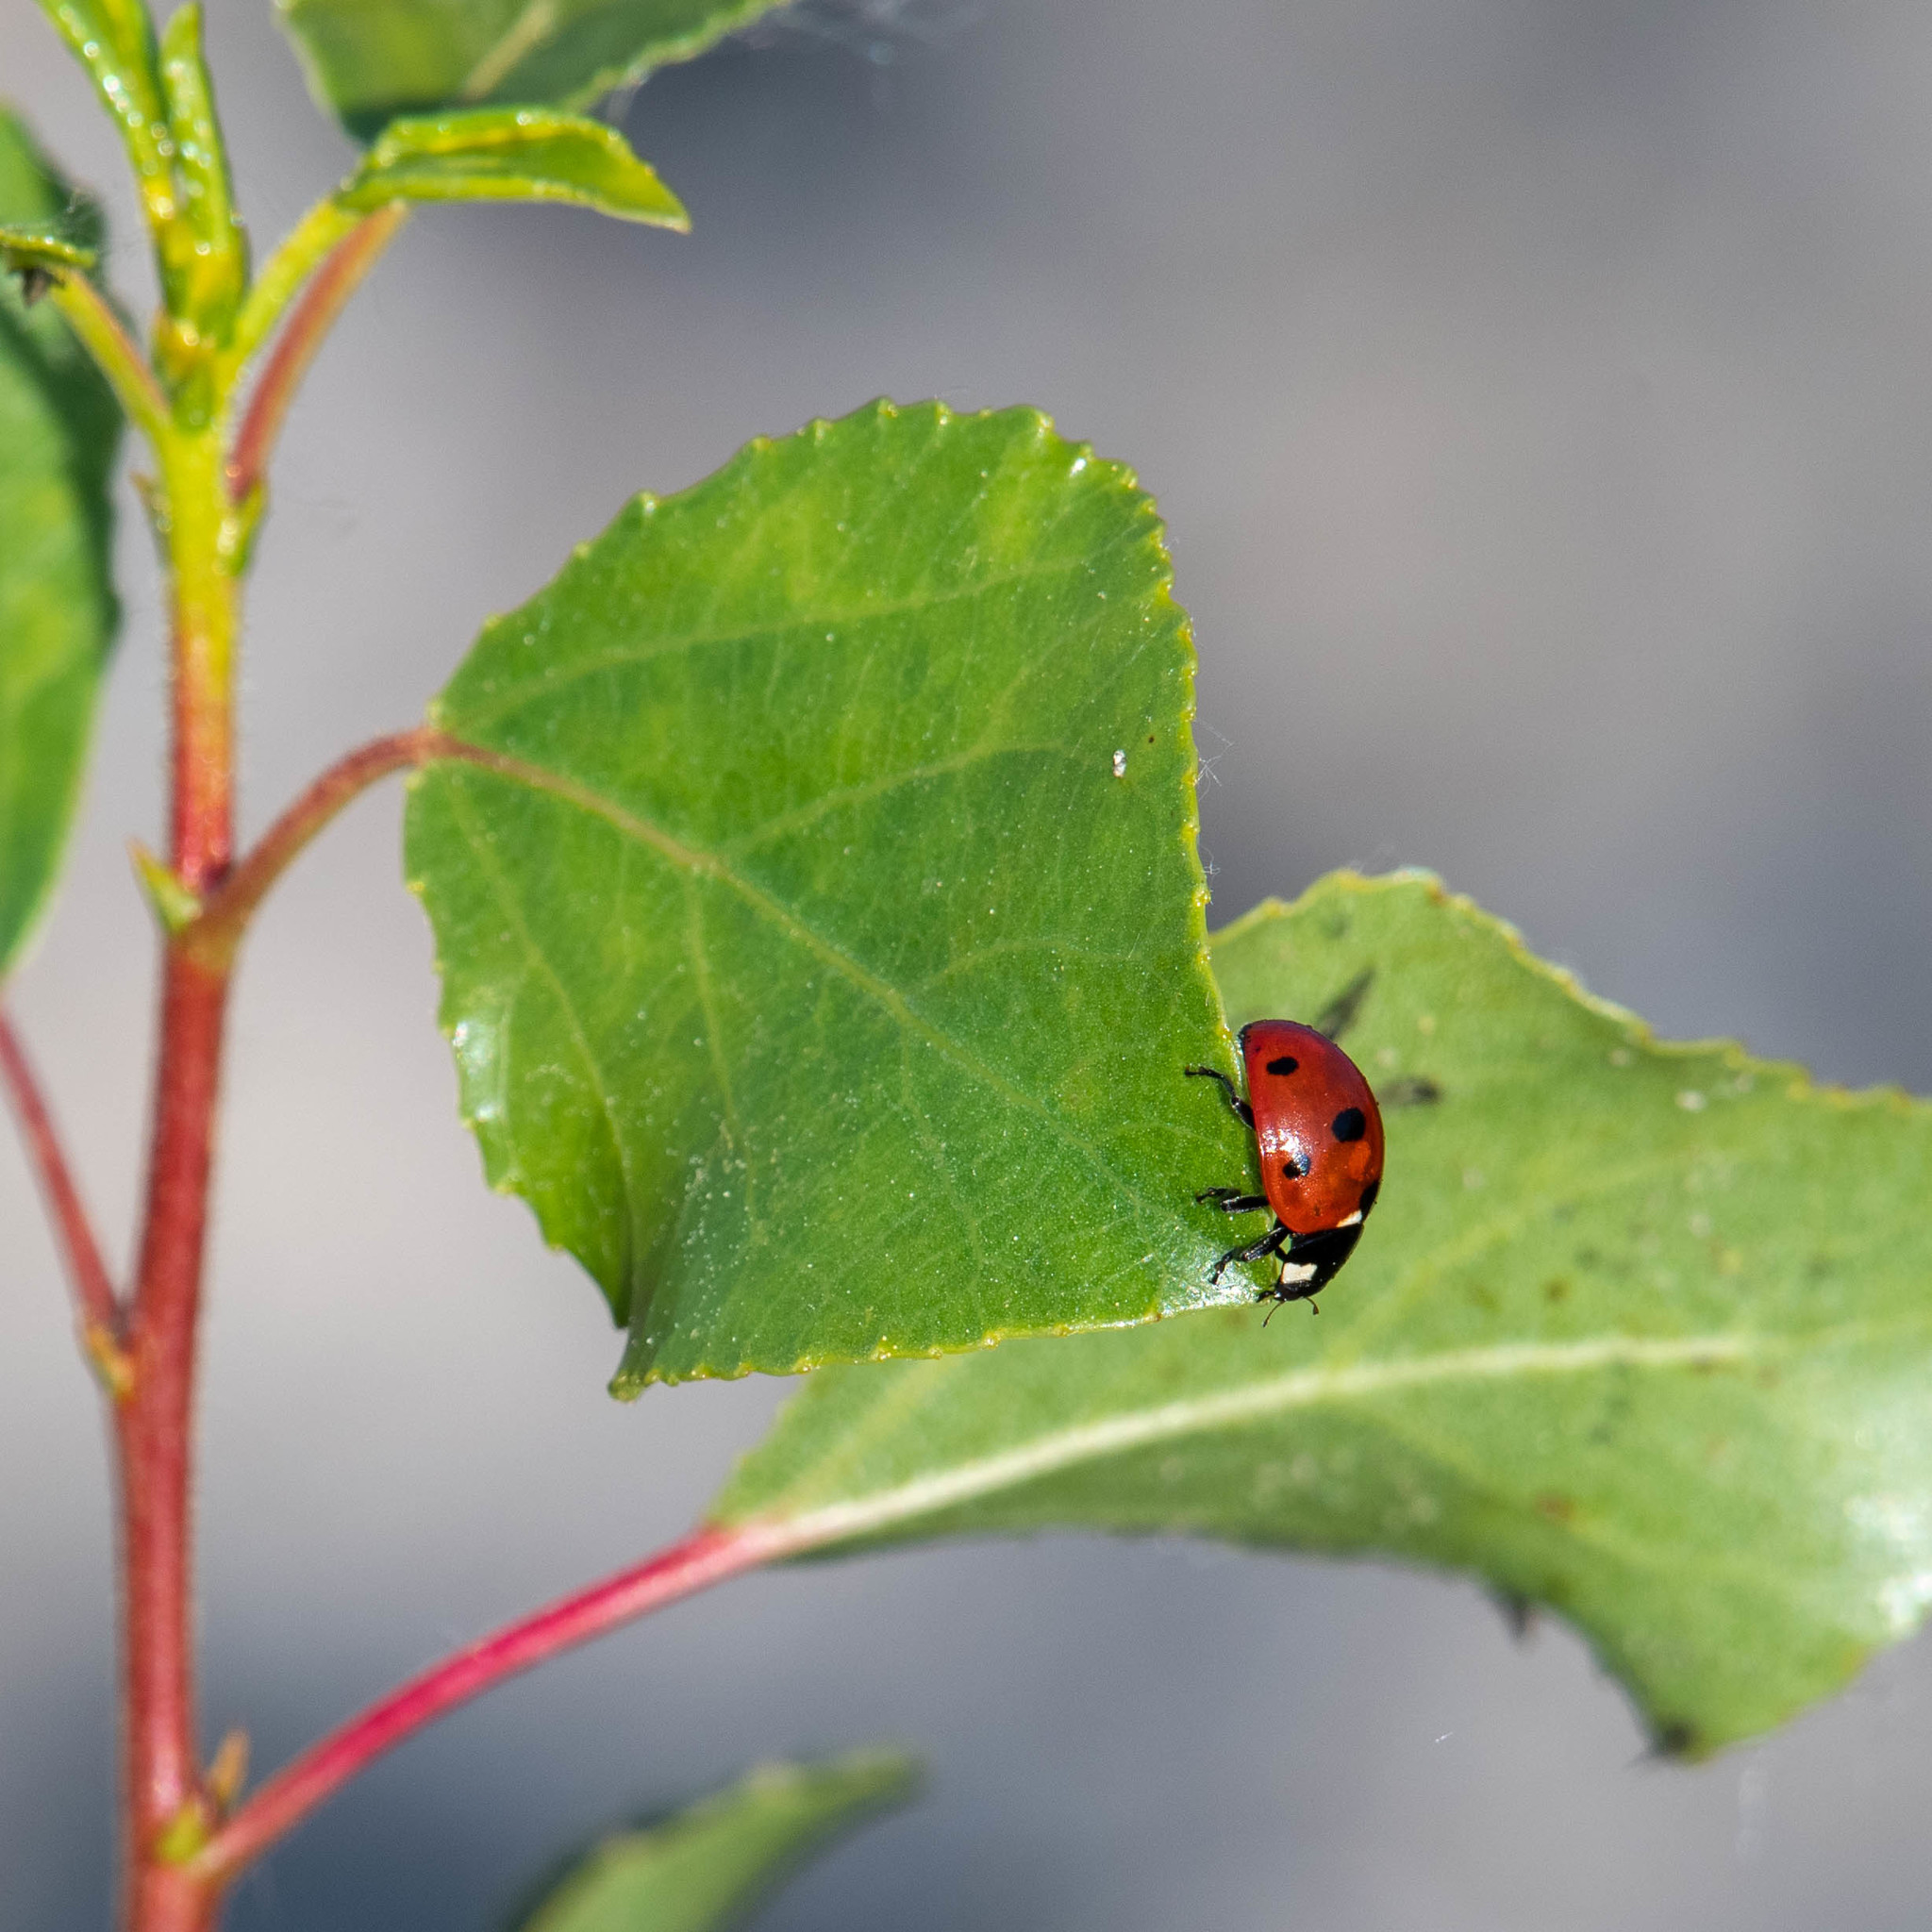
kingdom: Animalia
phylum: Arthropoda
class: Insecta
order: Coleoptera
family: Coccinellidae
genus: Coccinella
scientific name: Coccinella septempunctata
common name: Sevenspotted lady beetle
